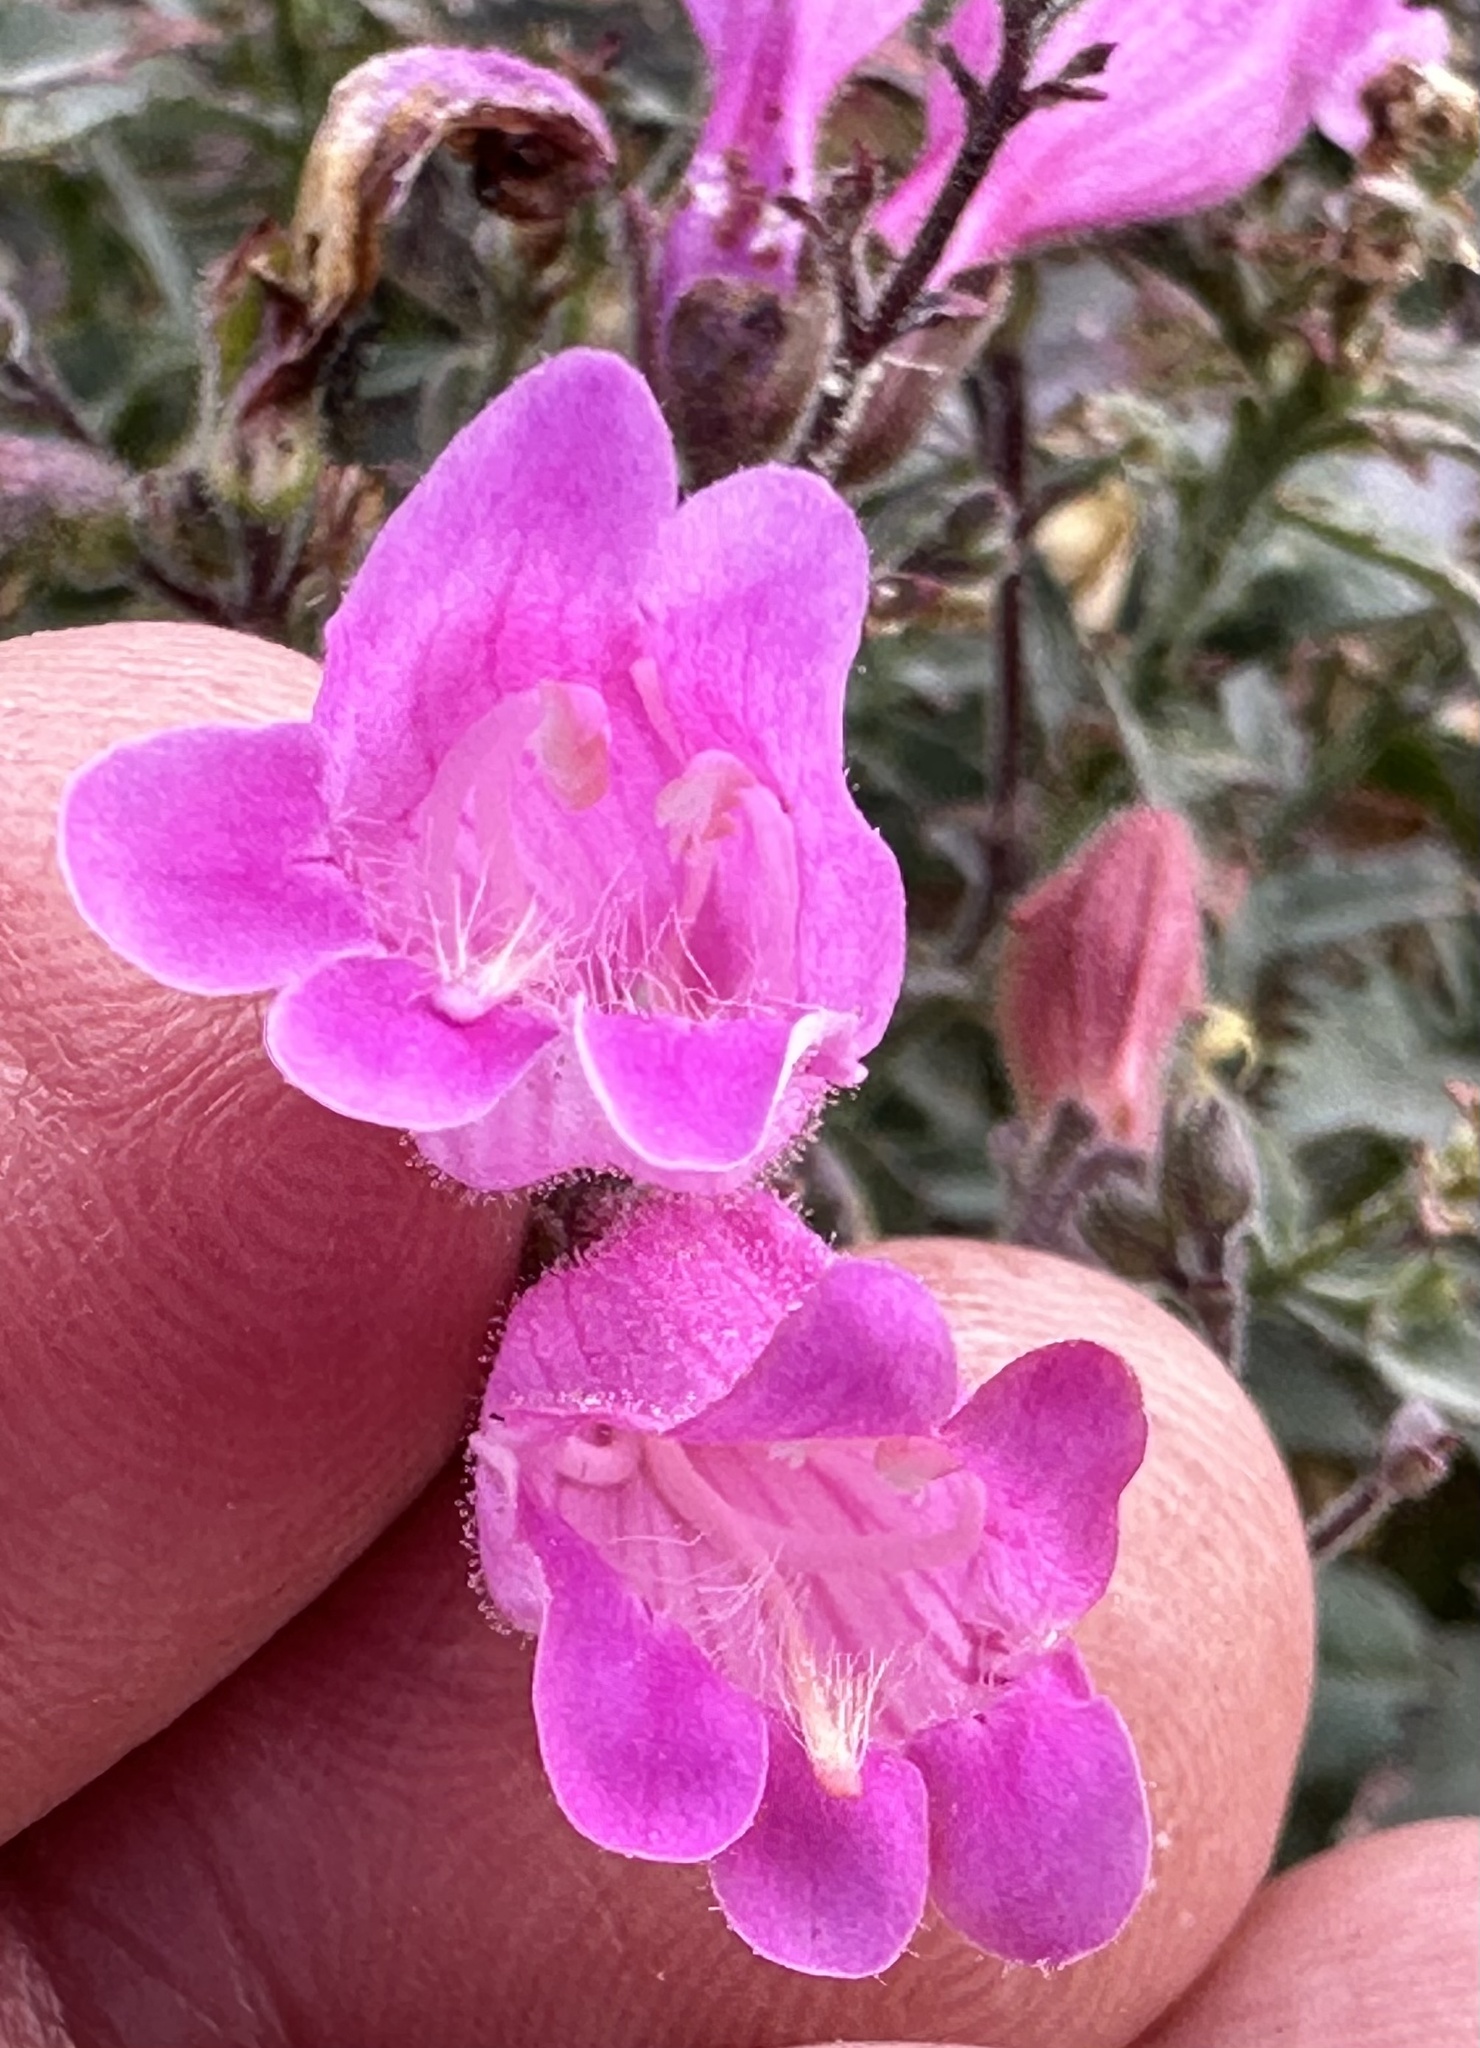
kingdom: Plantae
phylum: Tracheophyta
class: Magnoliopsida
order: Lamiales
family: Plantaginaceae
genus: Penstemon
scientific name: Penstemon richardsonii
